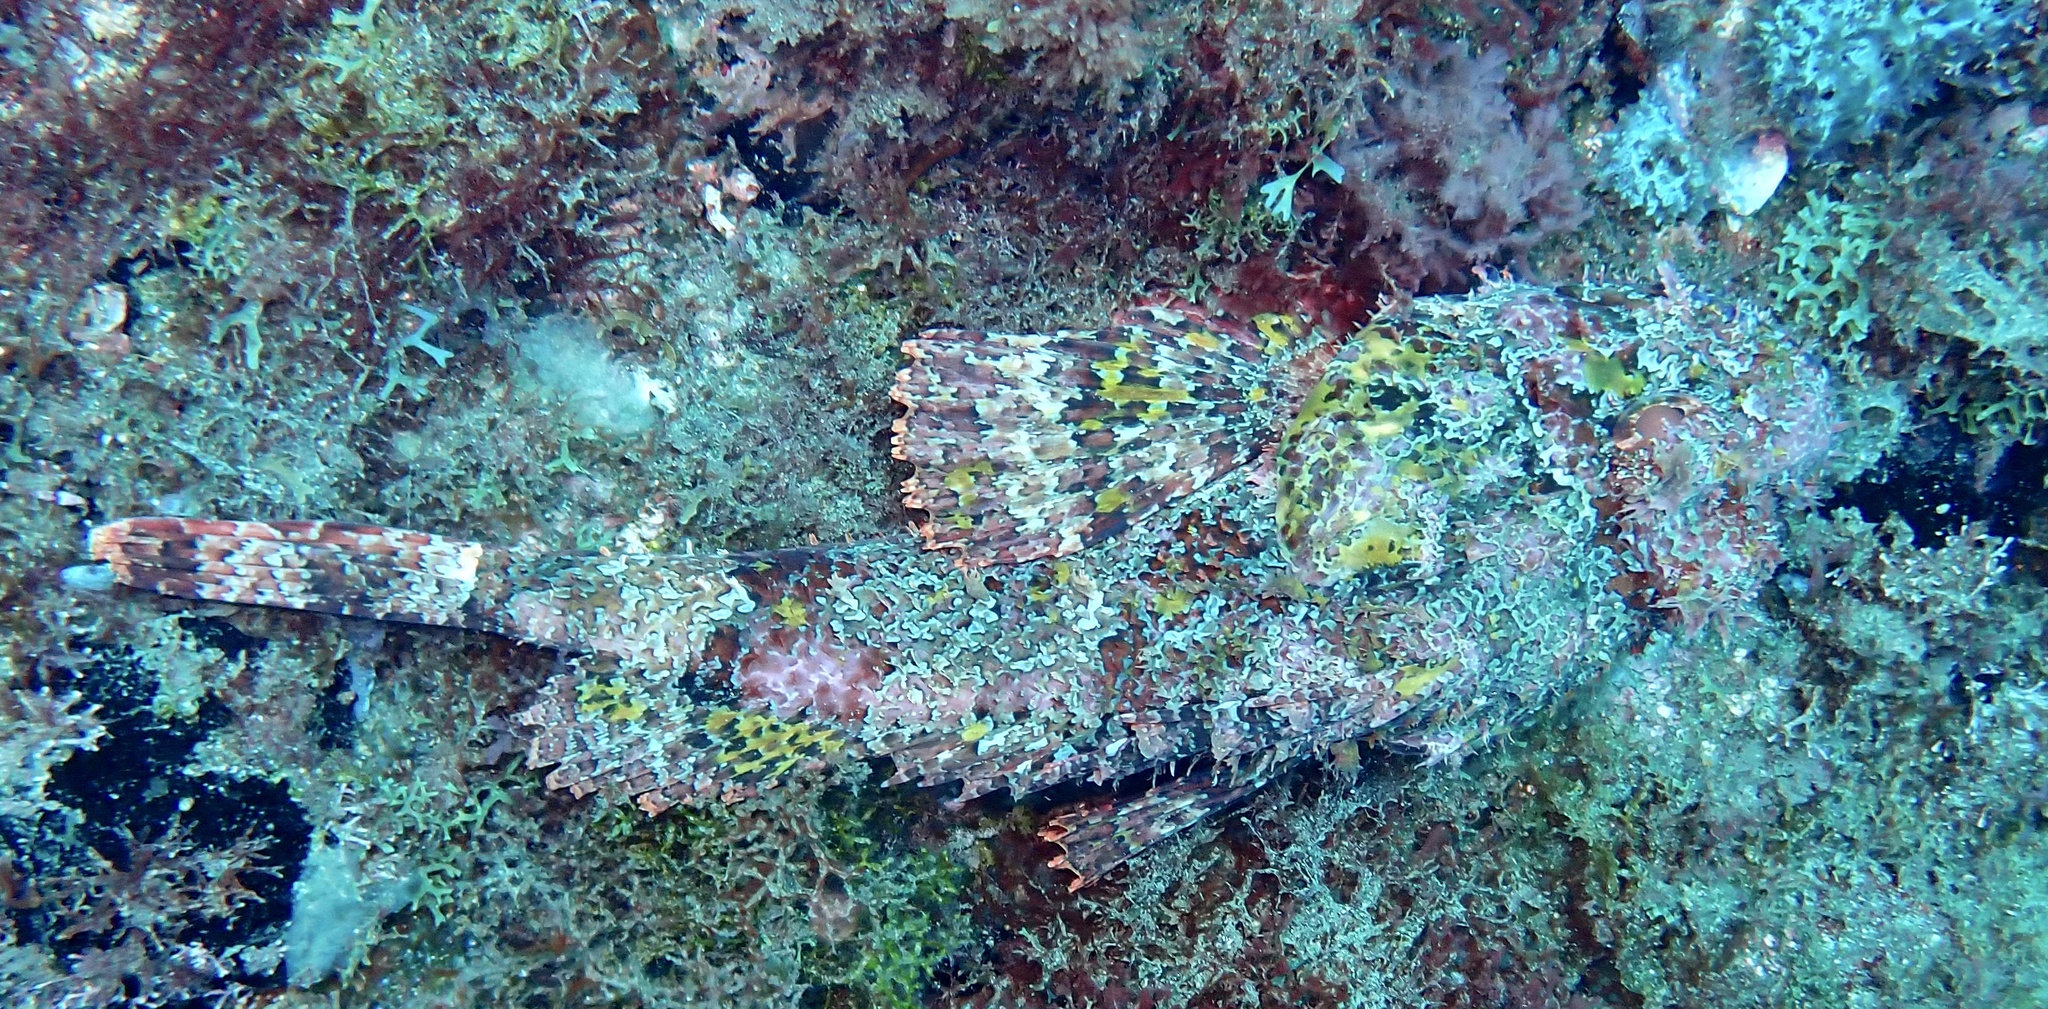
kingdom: Animalia
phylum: Chordata
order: Scorpaeniformes
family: Scorpaenidae
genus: Scorpaena
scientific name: Scorpaena laevis
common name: Senegalese rockfish
